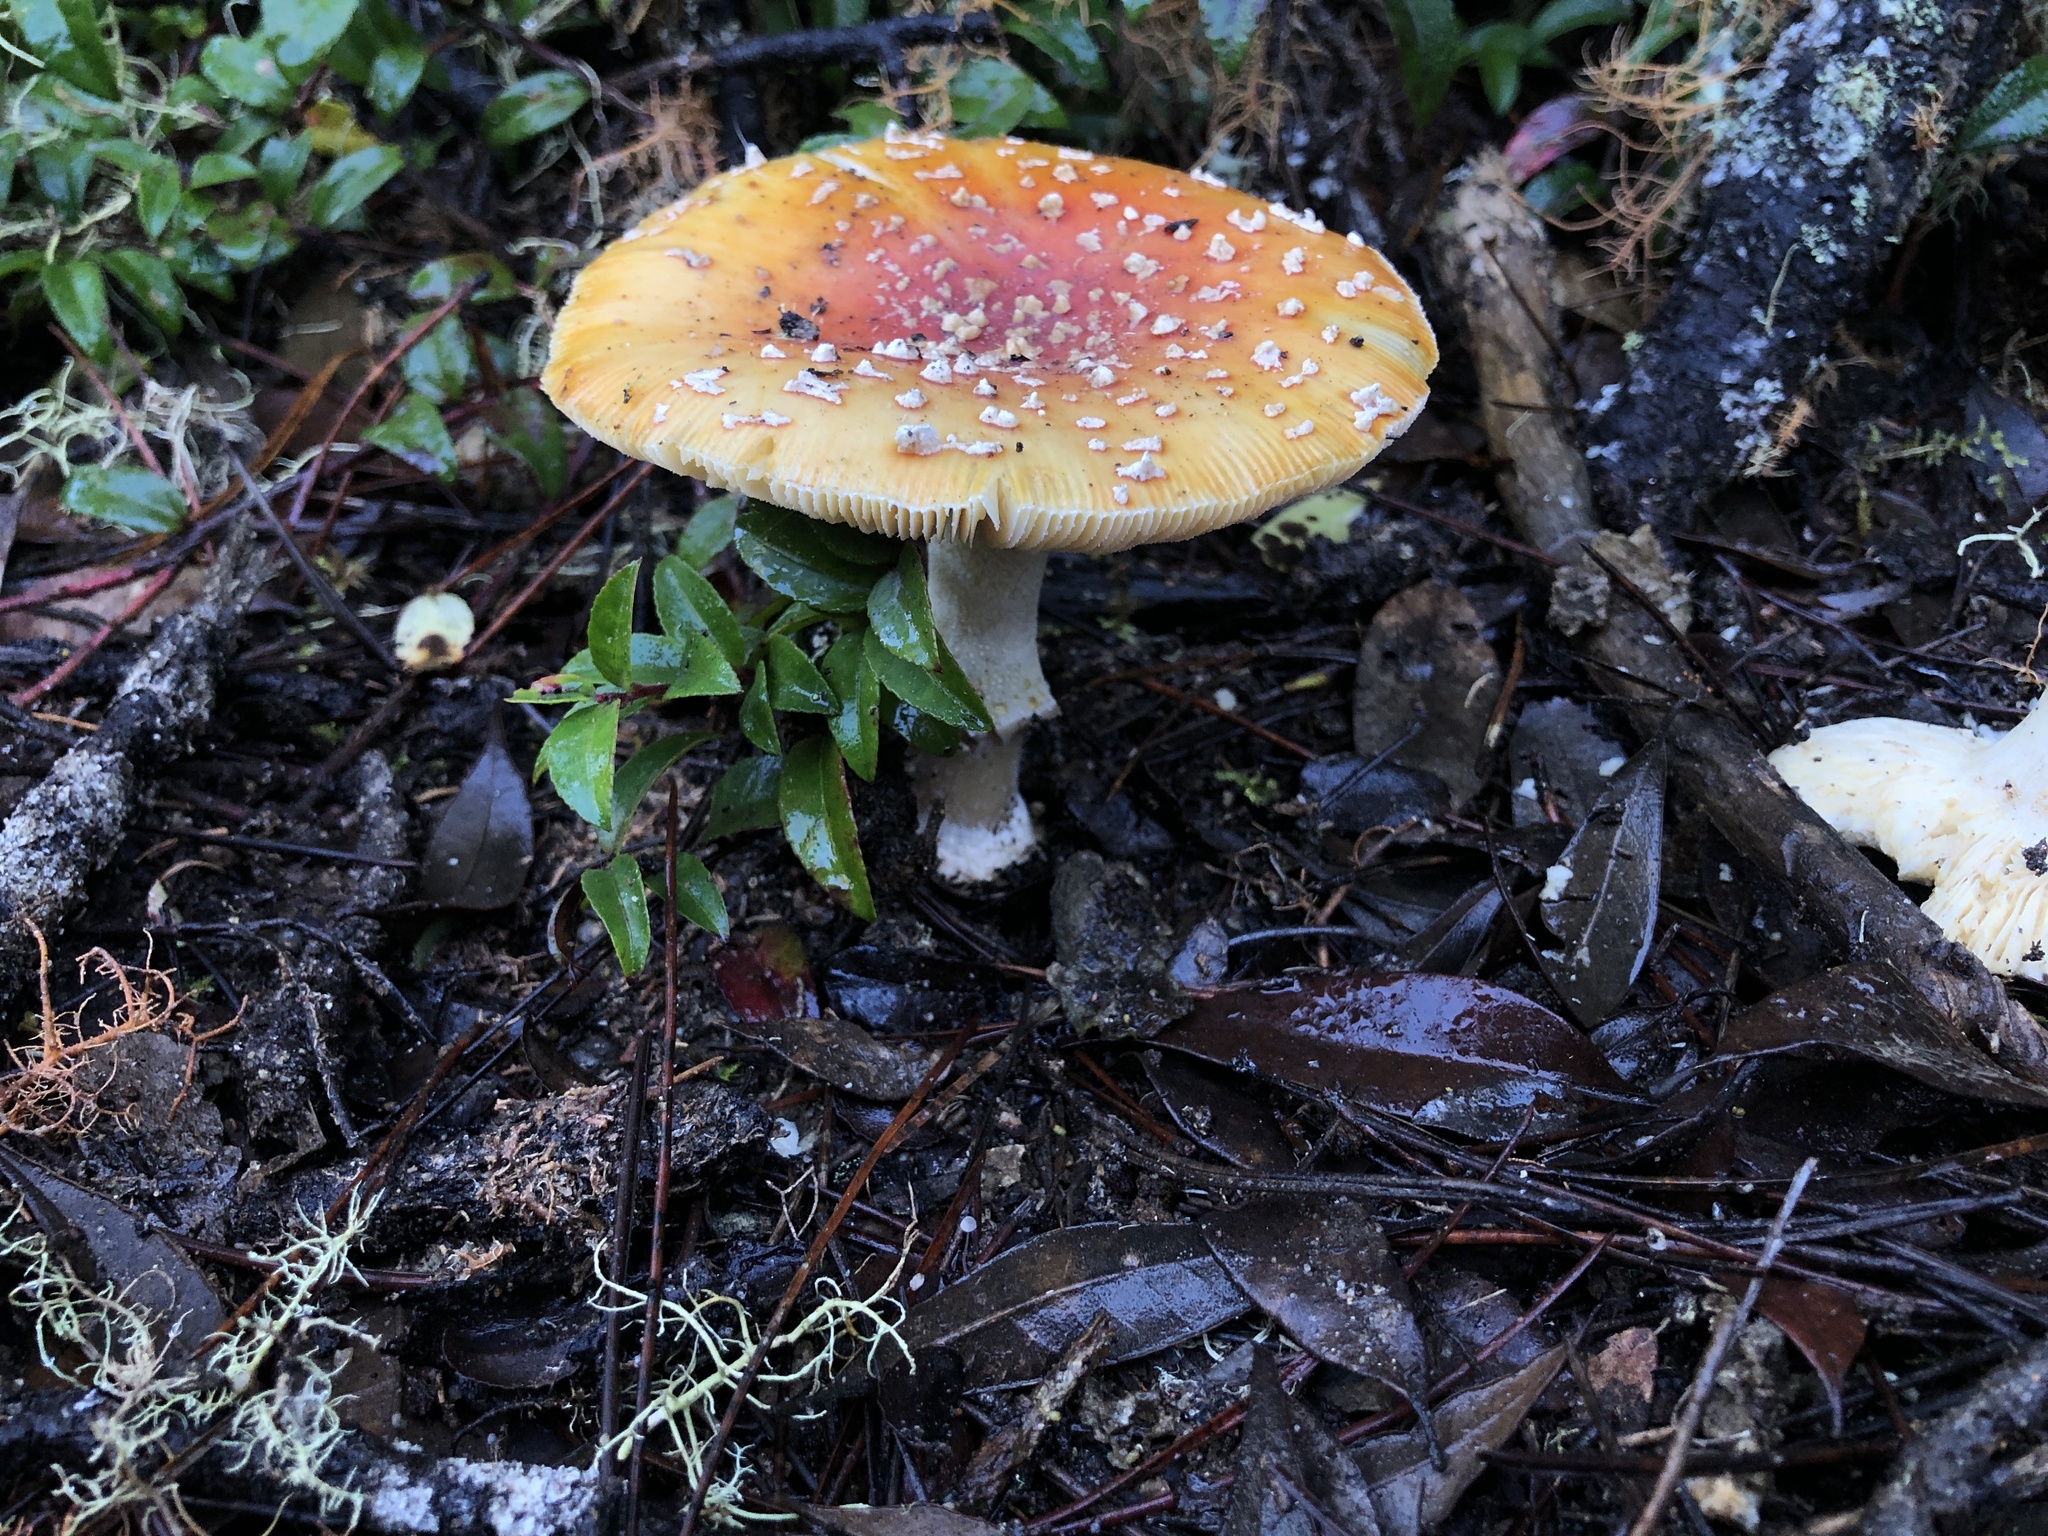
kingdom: Fungi
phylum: Basidiomycota
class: Agaricomycetes
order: Agaricales
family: Amanitaceae
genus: Amanita
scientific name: Amanita muscaria
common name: Fly agaric
